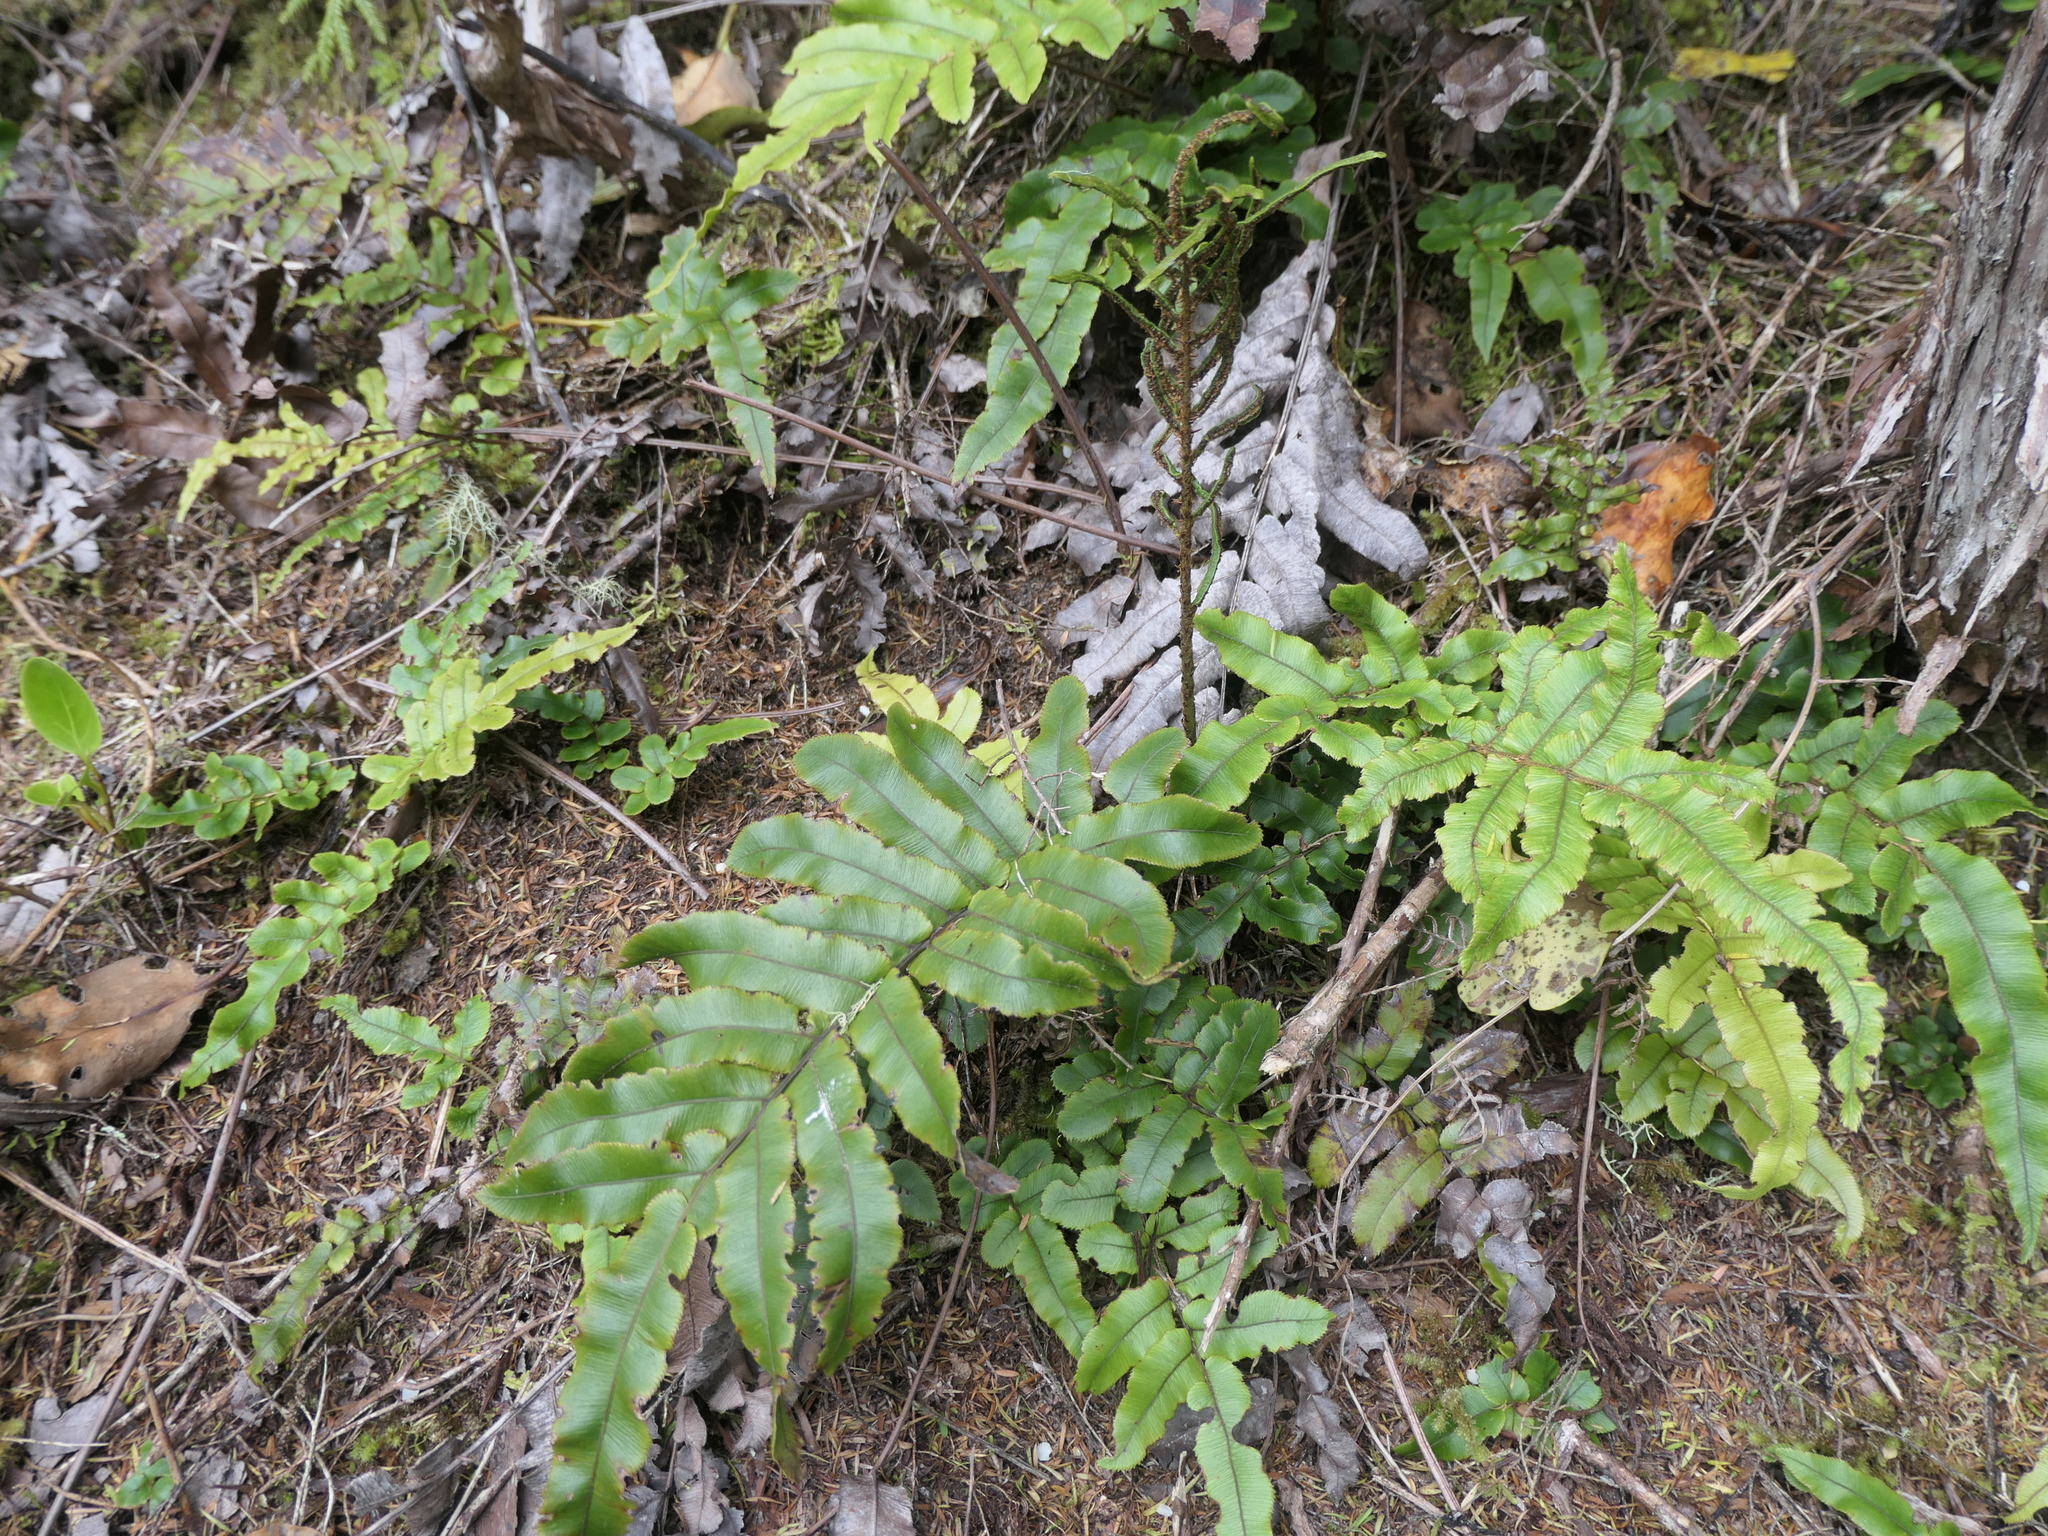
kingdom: Plantae
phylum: Tracheophyta
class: Polypodiopsida
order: Polypodiales
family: Blechnaceae
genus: Parablechnum
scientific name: Parablechnum procerum
